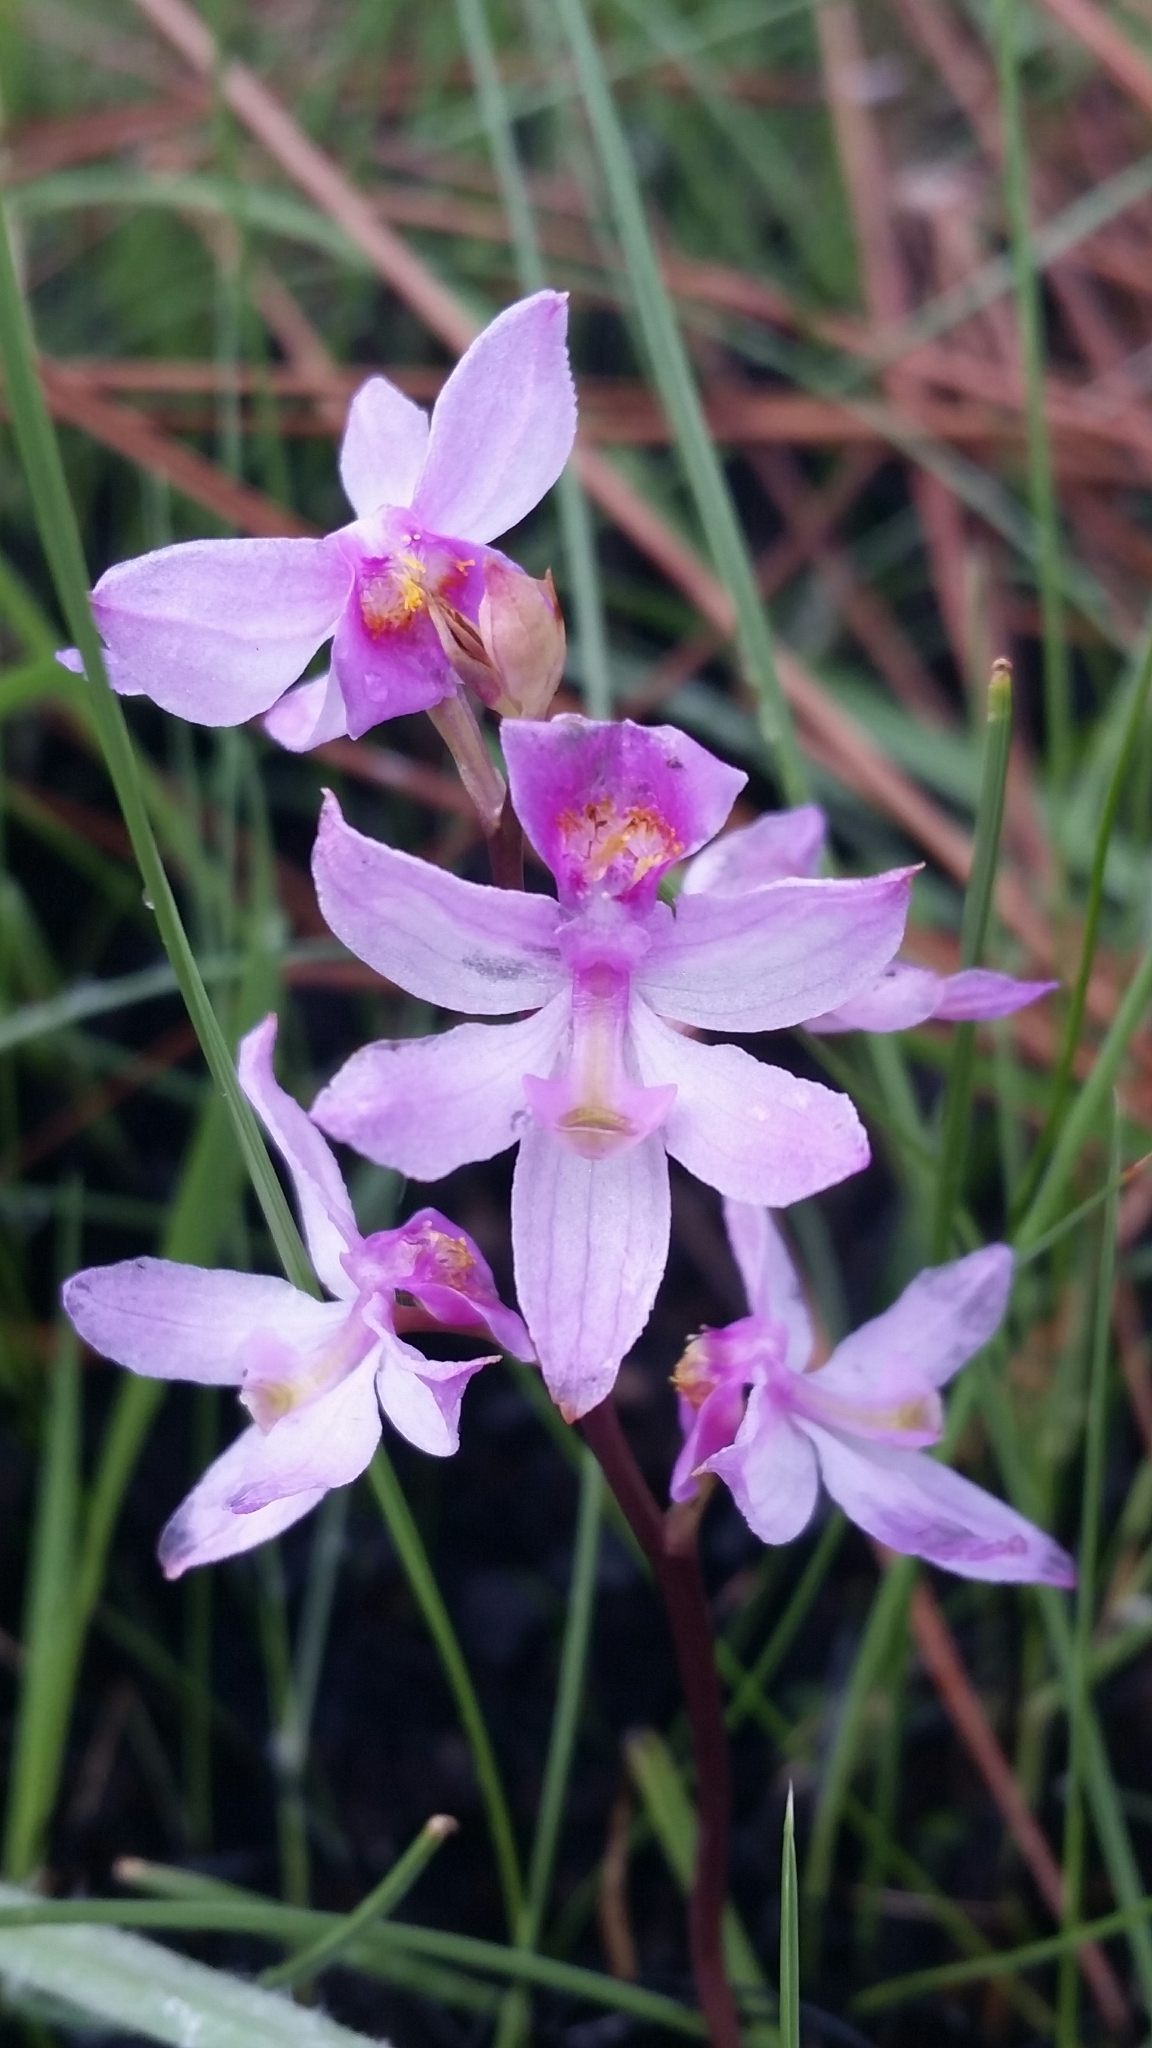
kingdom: Plantae
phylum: Tracheophyta
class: Liliopsida
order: Asparagales
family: Orchidaceae
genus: Calopogon
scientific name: Calopogon multiflorus
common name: Many-flowered grass-pink orchid
